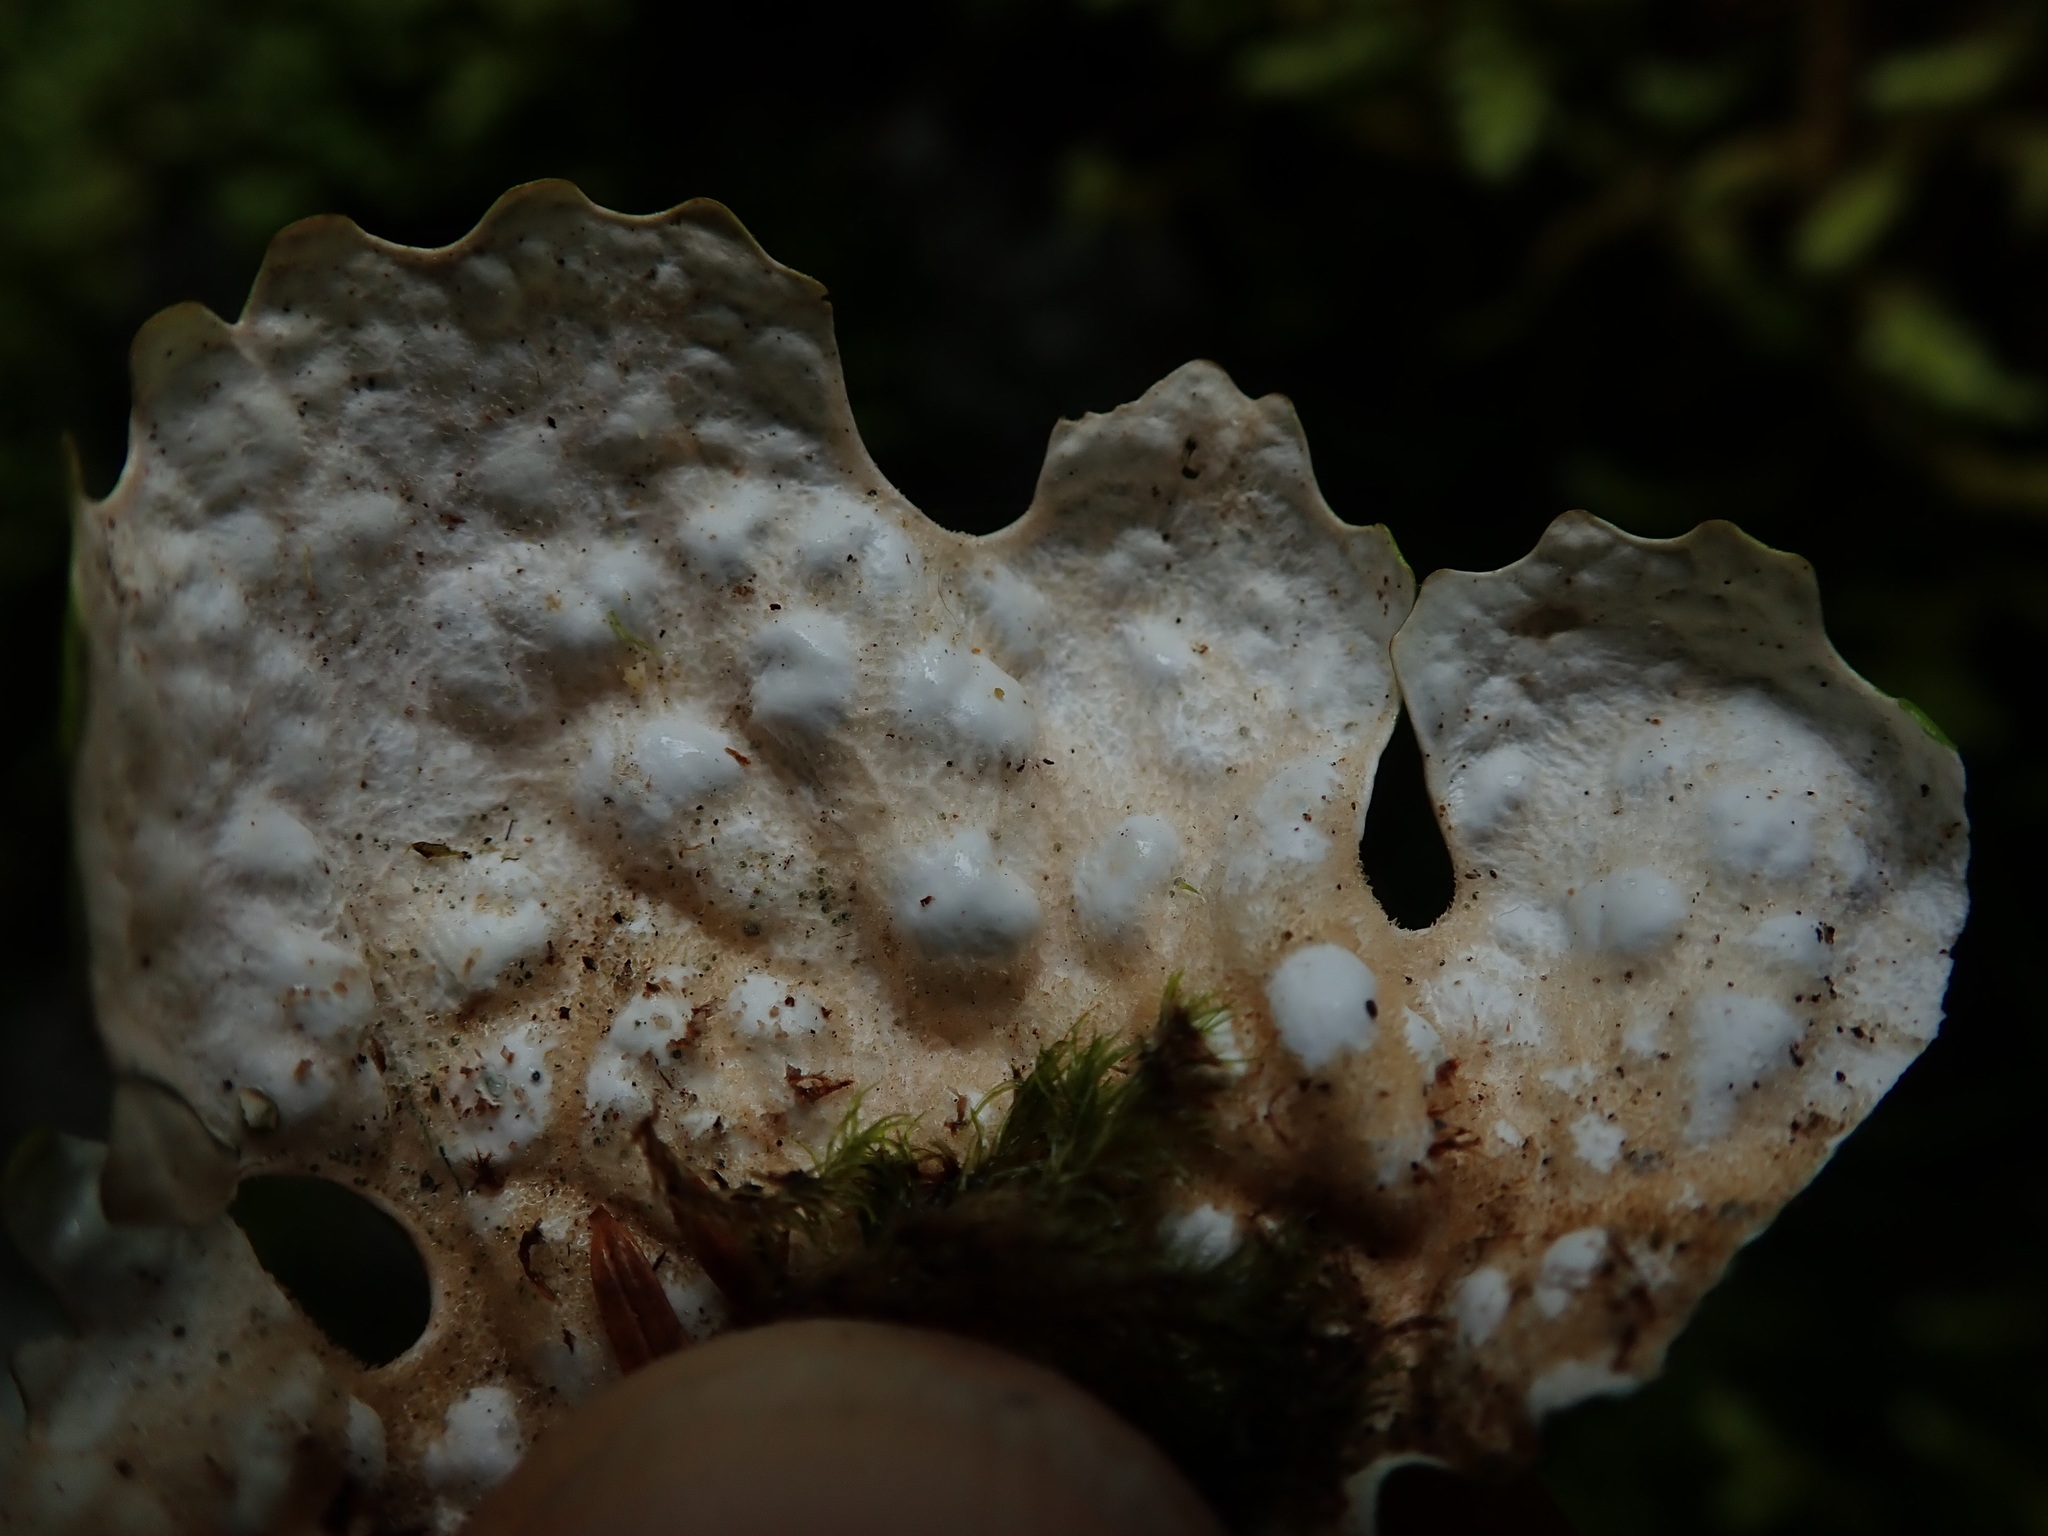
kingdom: Fungi
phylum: Ascomycota
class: Lecanoromycetes
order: Peltigerales
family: Lobariaceae
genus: Lobaria
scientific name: Lobaria pulmonaria
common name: Lungwort
